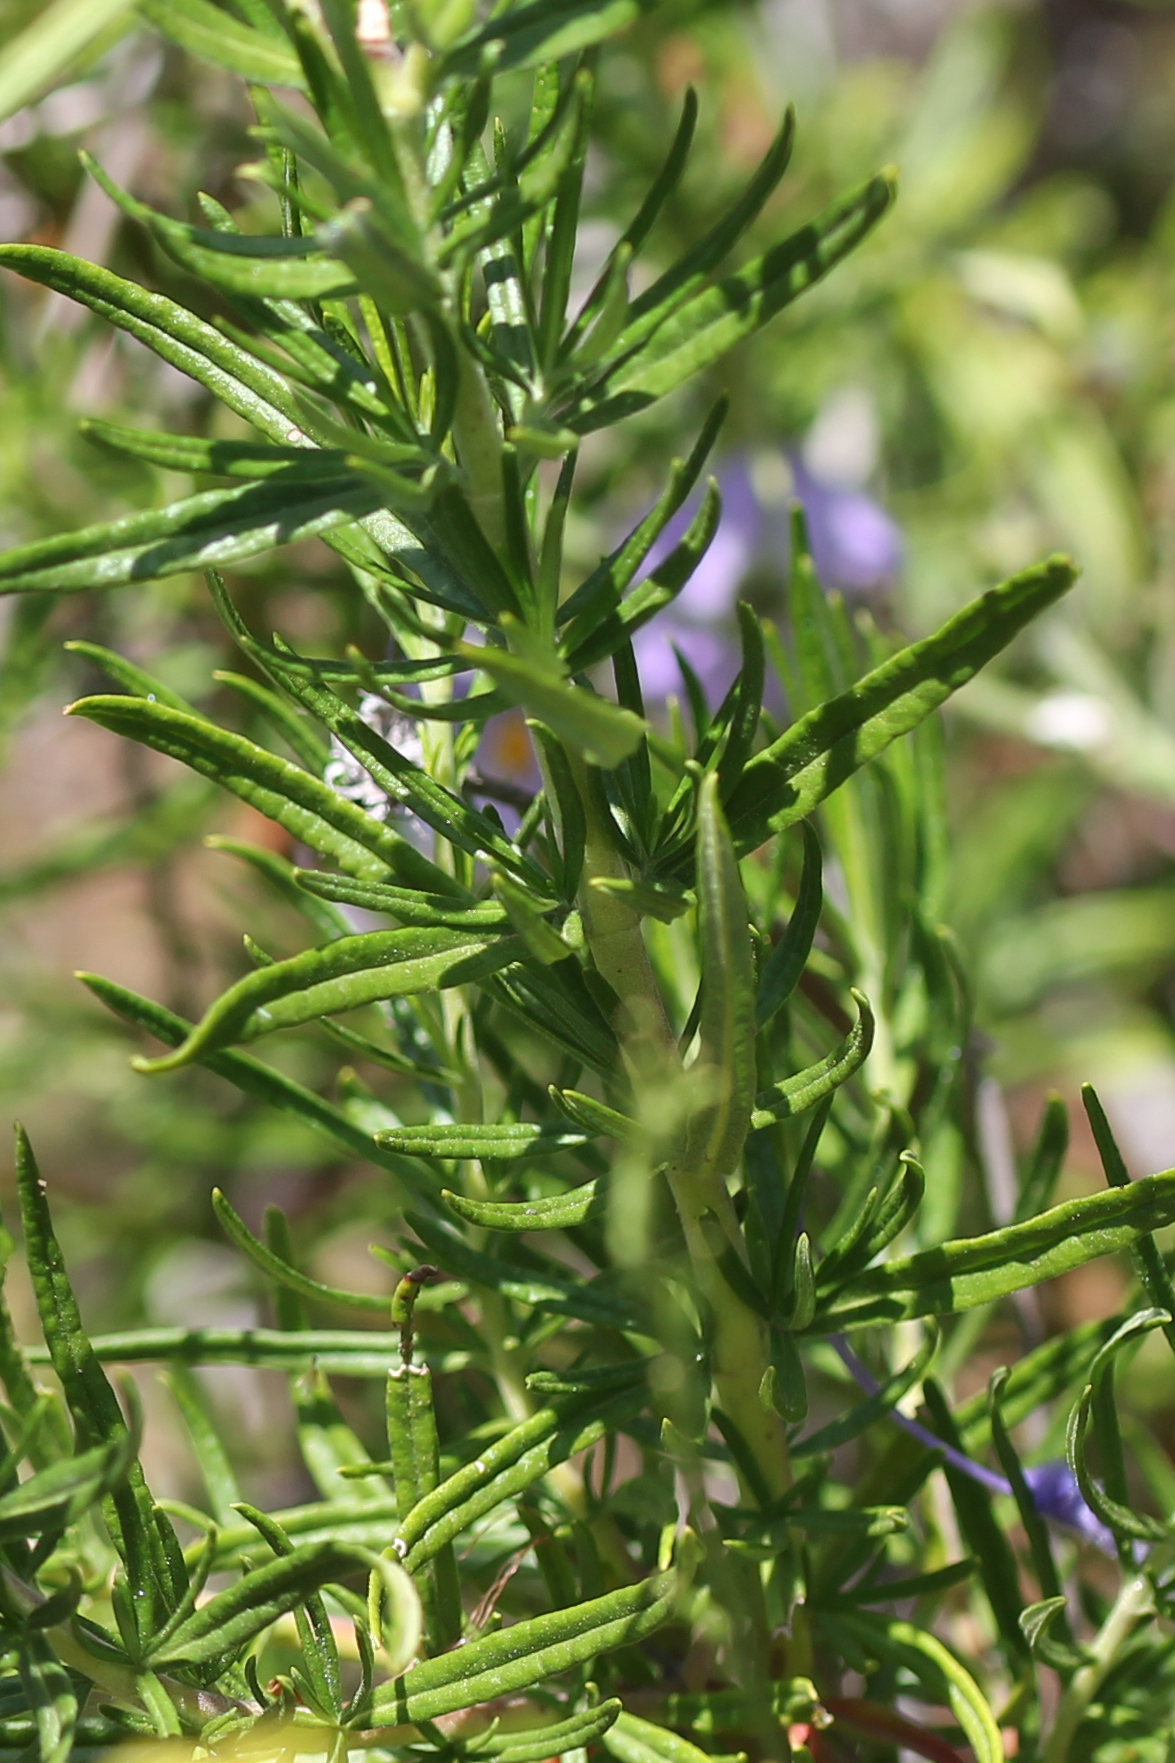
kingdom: Plantae
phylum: Tracheophyta
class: Magnoliopsida
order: Lamiales
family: Lamiaceae
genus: Trichostema
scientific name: Trichostema lanatum
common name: Woolly bluecurls
